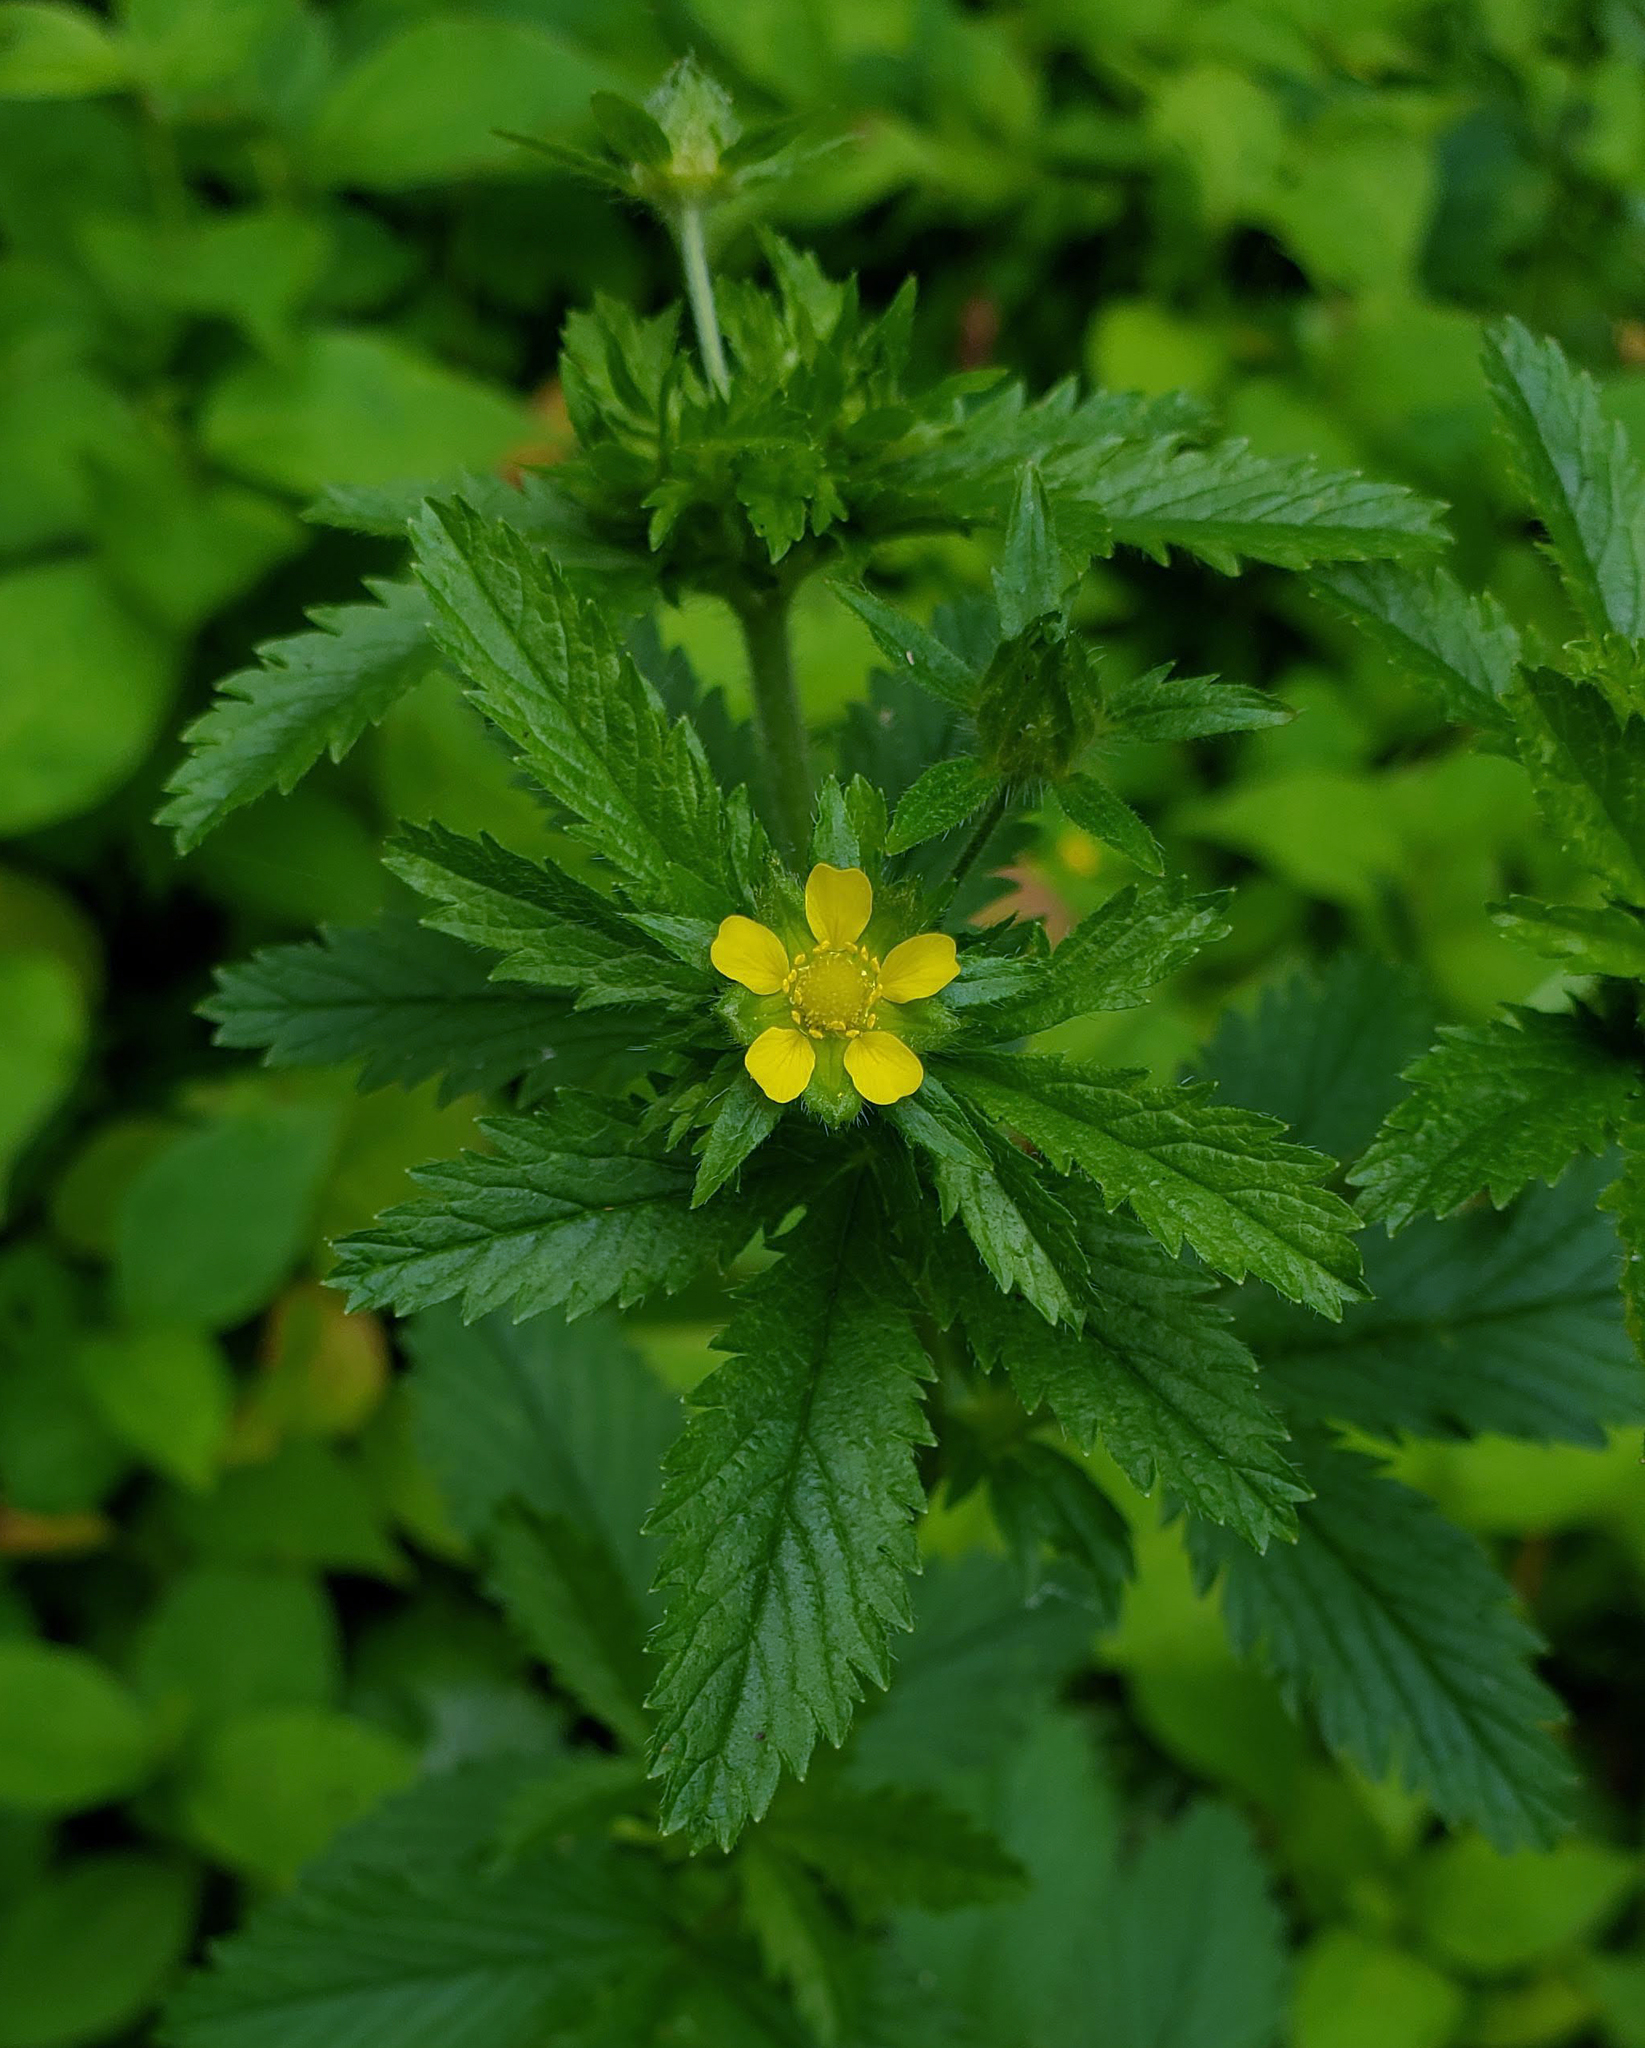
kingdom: Plantae
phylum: Tracheophyta
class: Magnoliopsida
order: Rosales
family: Rosaceae
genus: Potentilla
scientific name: Potentilla norvegica
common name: Ternate-leaved cinquefoil
